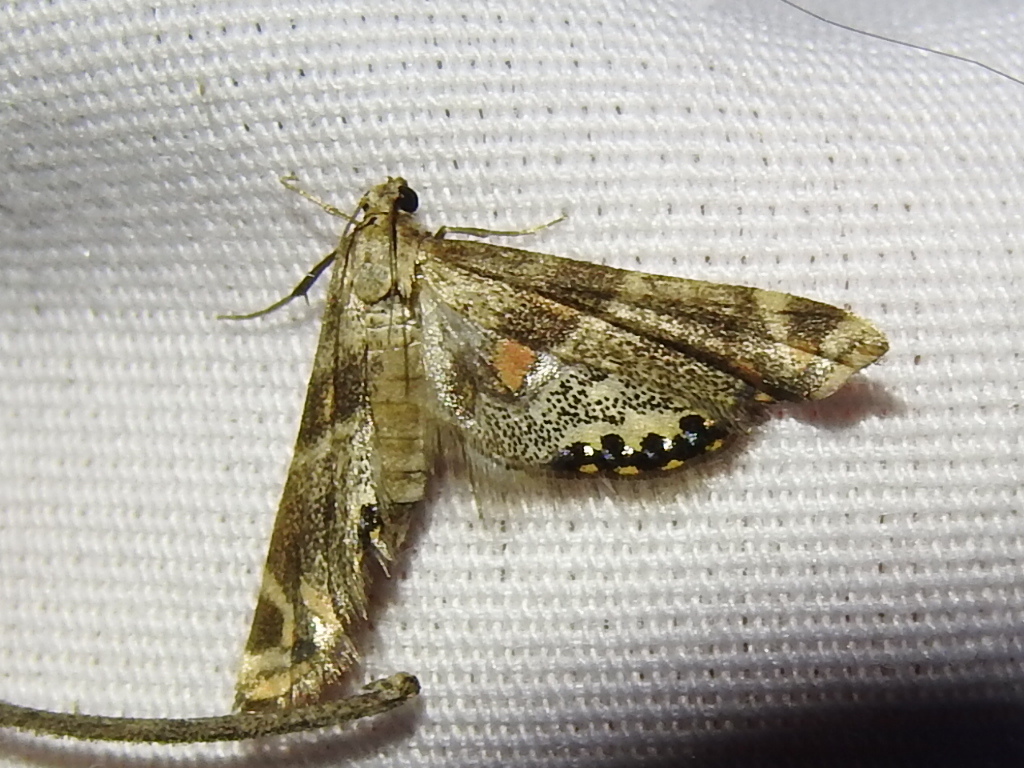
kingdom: Animalia
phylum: Arthropoda
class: Insecta
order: Lepidoptera
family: Crambidae
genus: Petrophila
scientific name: Petrophila jaliscalis
